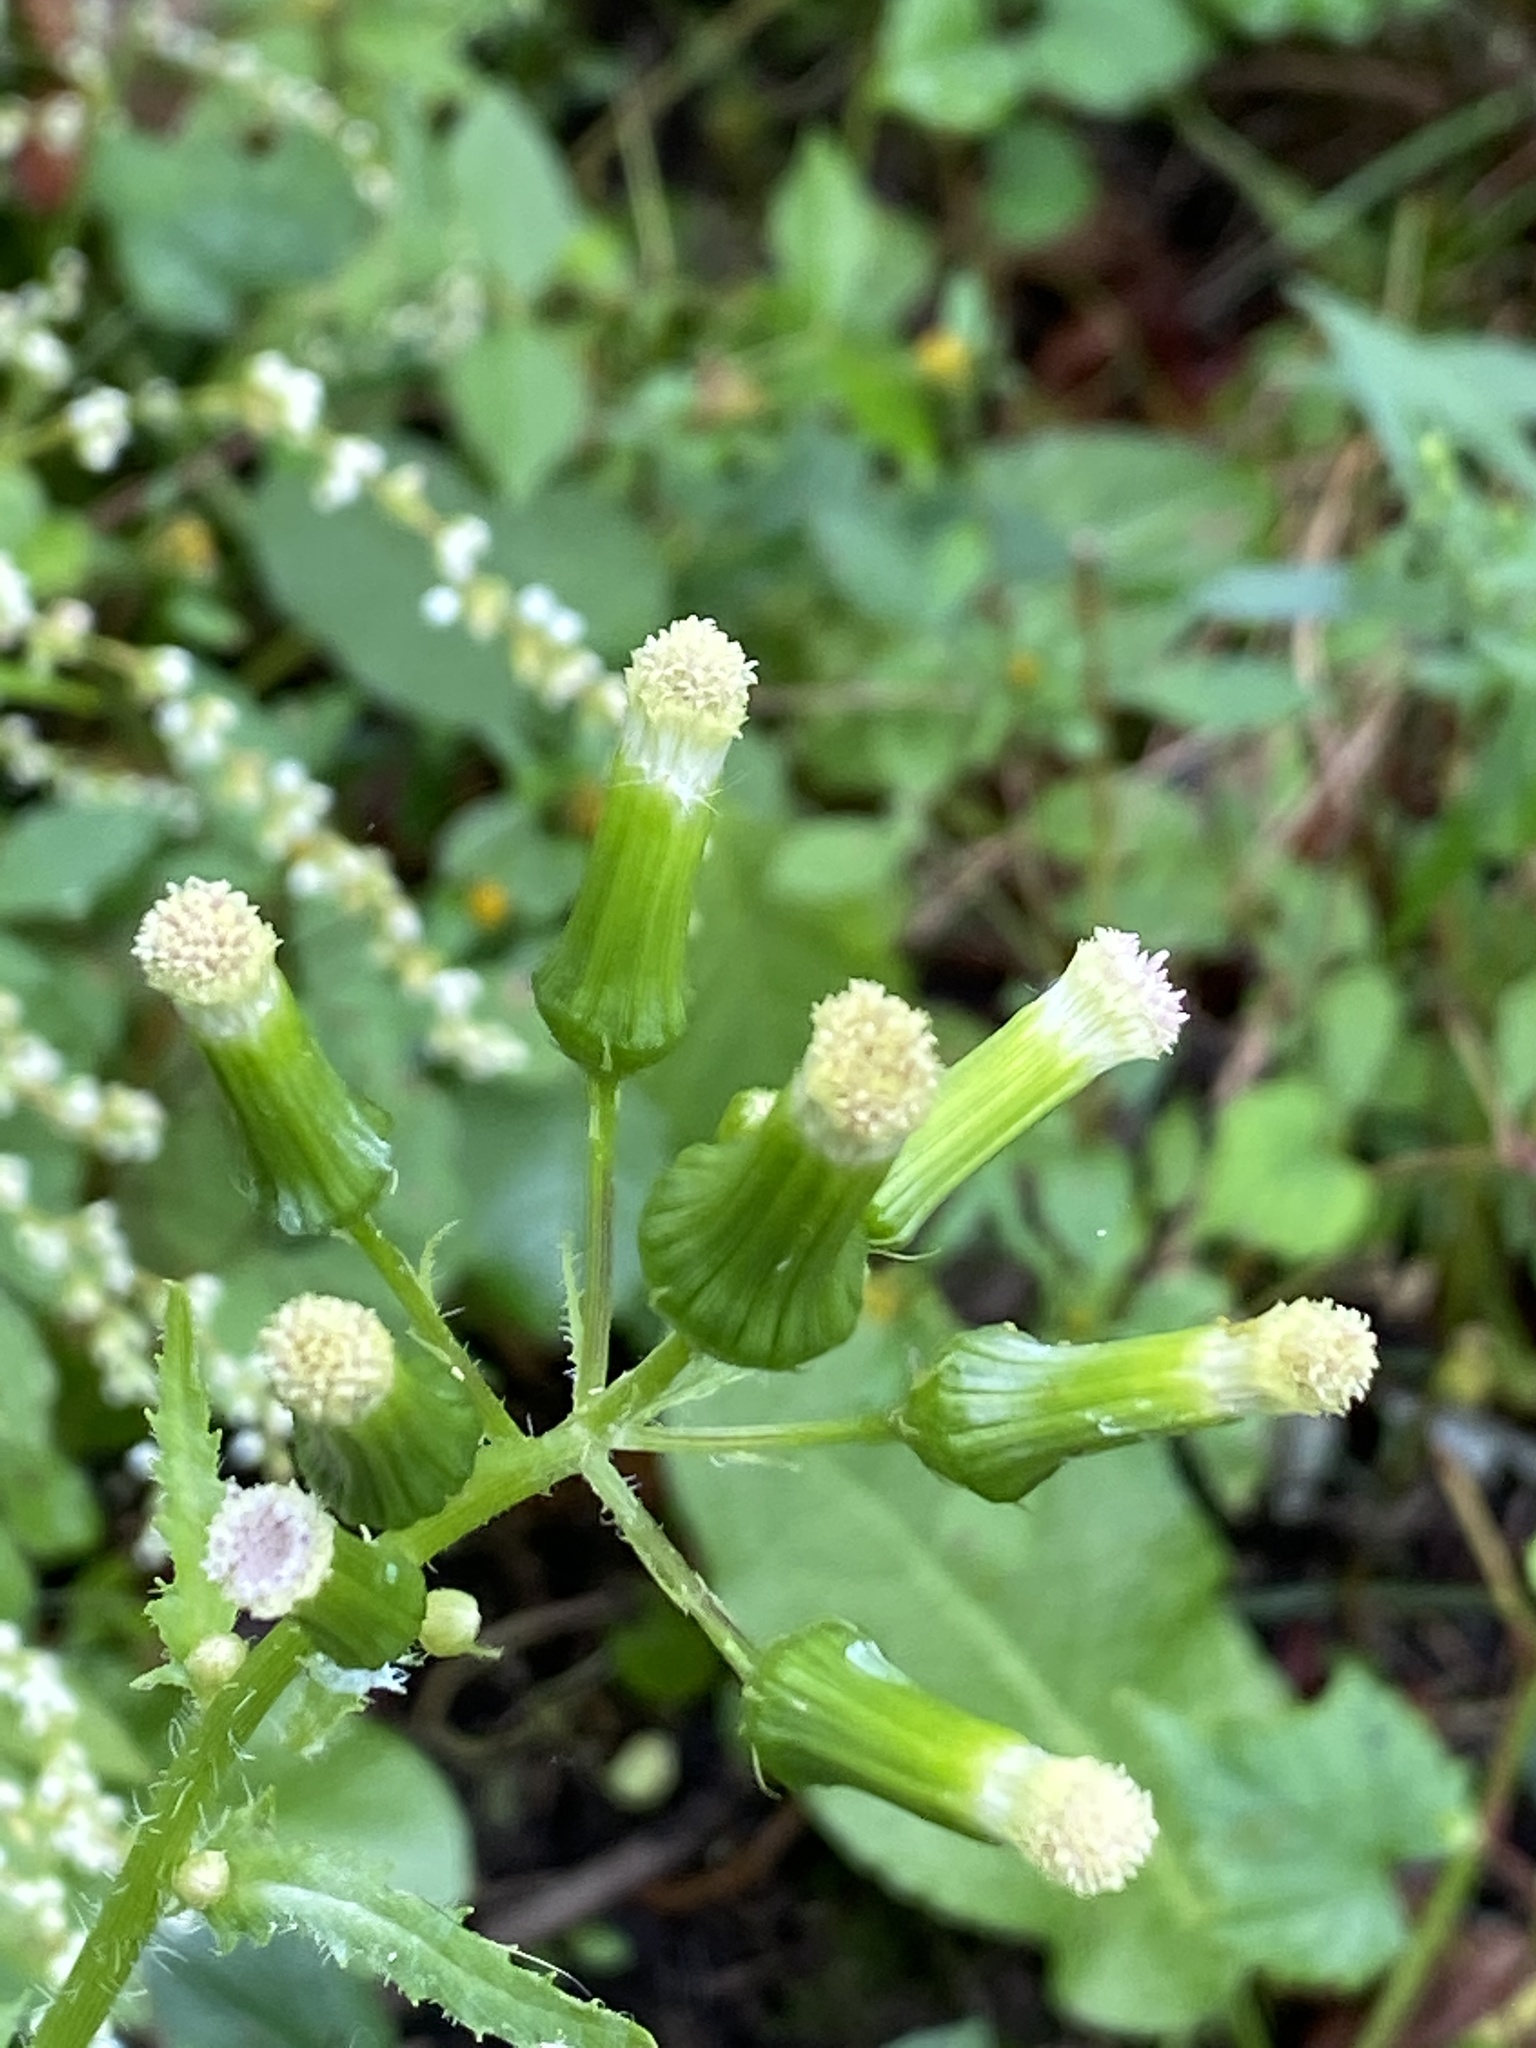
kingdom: Plantae
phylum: Tracheophyta
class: Magnoliopsida
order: Asterales
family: Asteraceae
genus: Erechtites
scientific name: Erechtites hieraciifolius
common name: American burnweed
